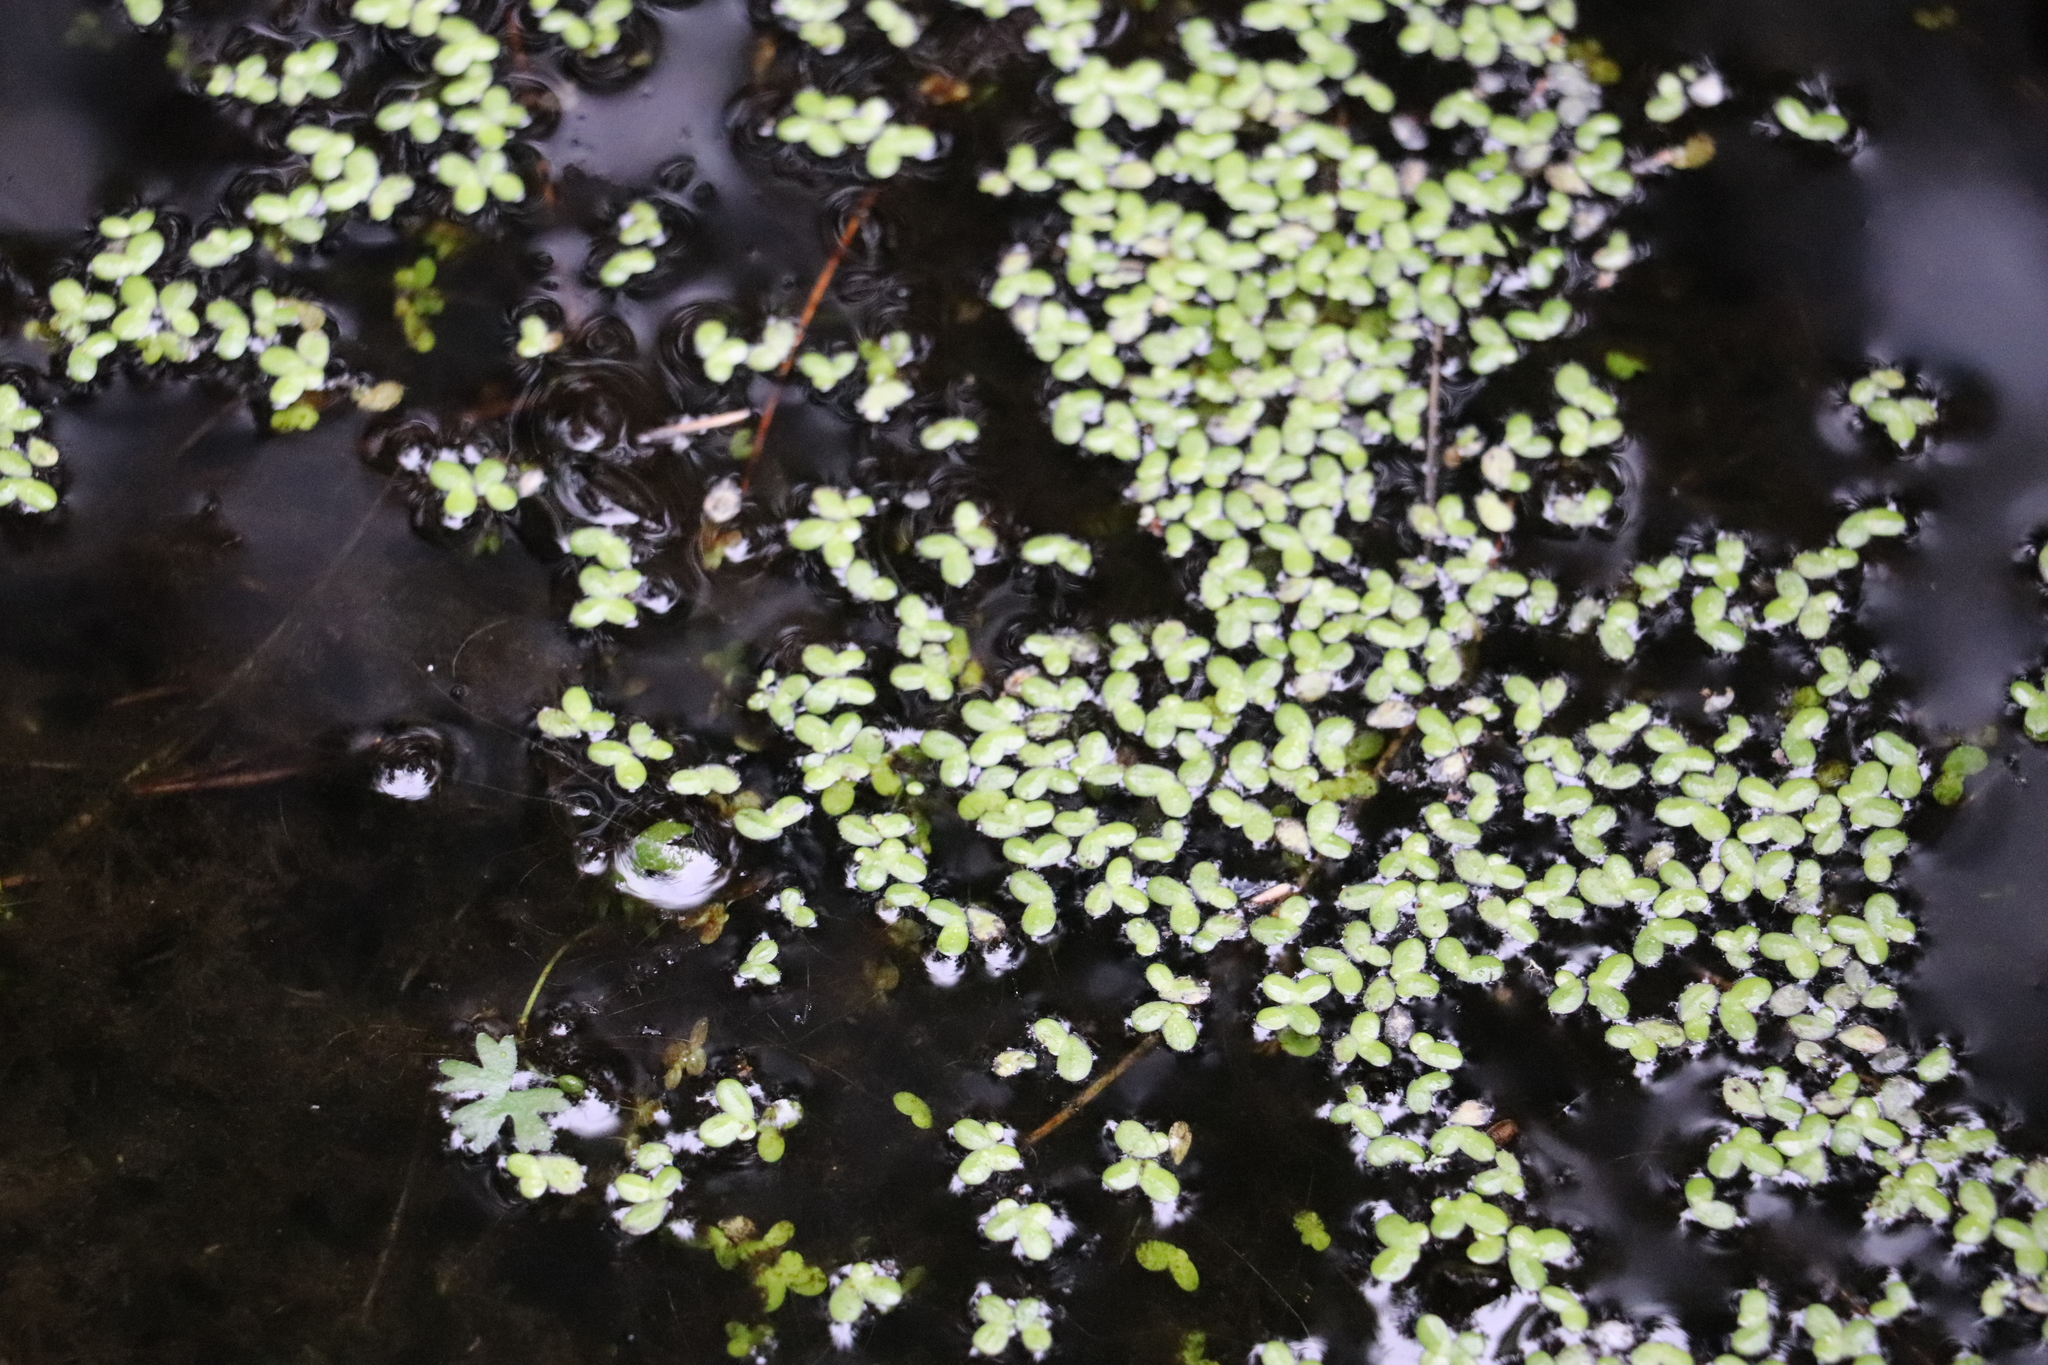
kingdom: Plantae
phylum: Tracheophyta
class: Liliopsida
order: Alismatales
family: Araceae
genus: Lemna
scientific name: Lemna minor
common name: Common duckweed
